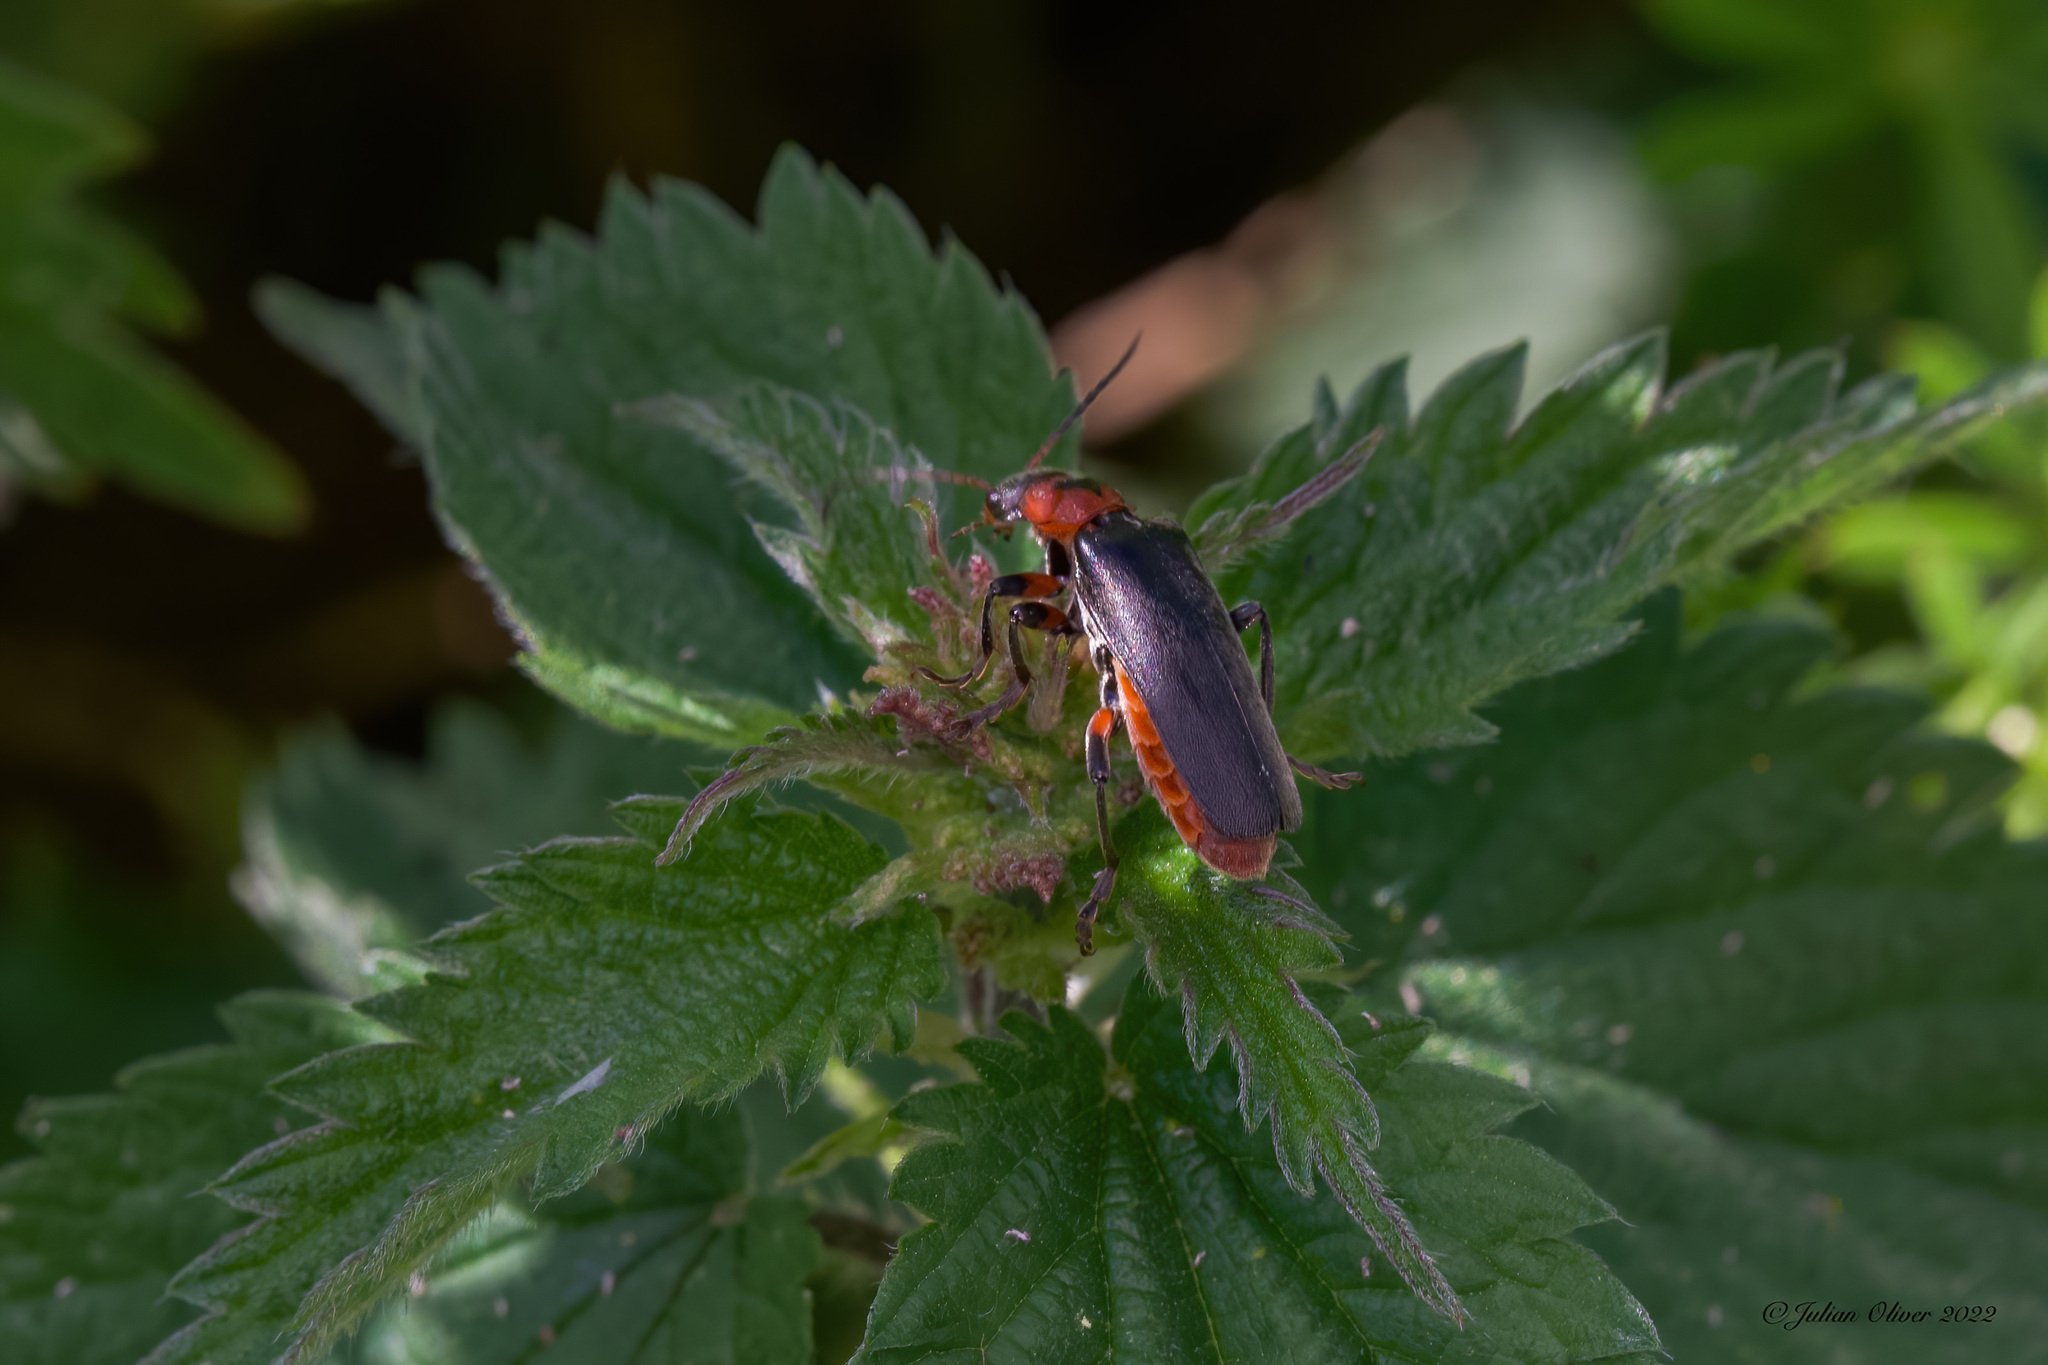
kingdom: Animalia
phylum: Arthropoda
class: Insecta
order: Coleoptera
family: Cantharidae
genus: Cantharis
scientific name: Cantharis rustica
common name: Soldier beetle
